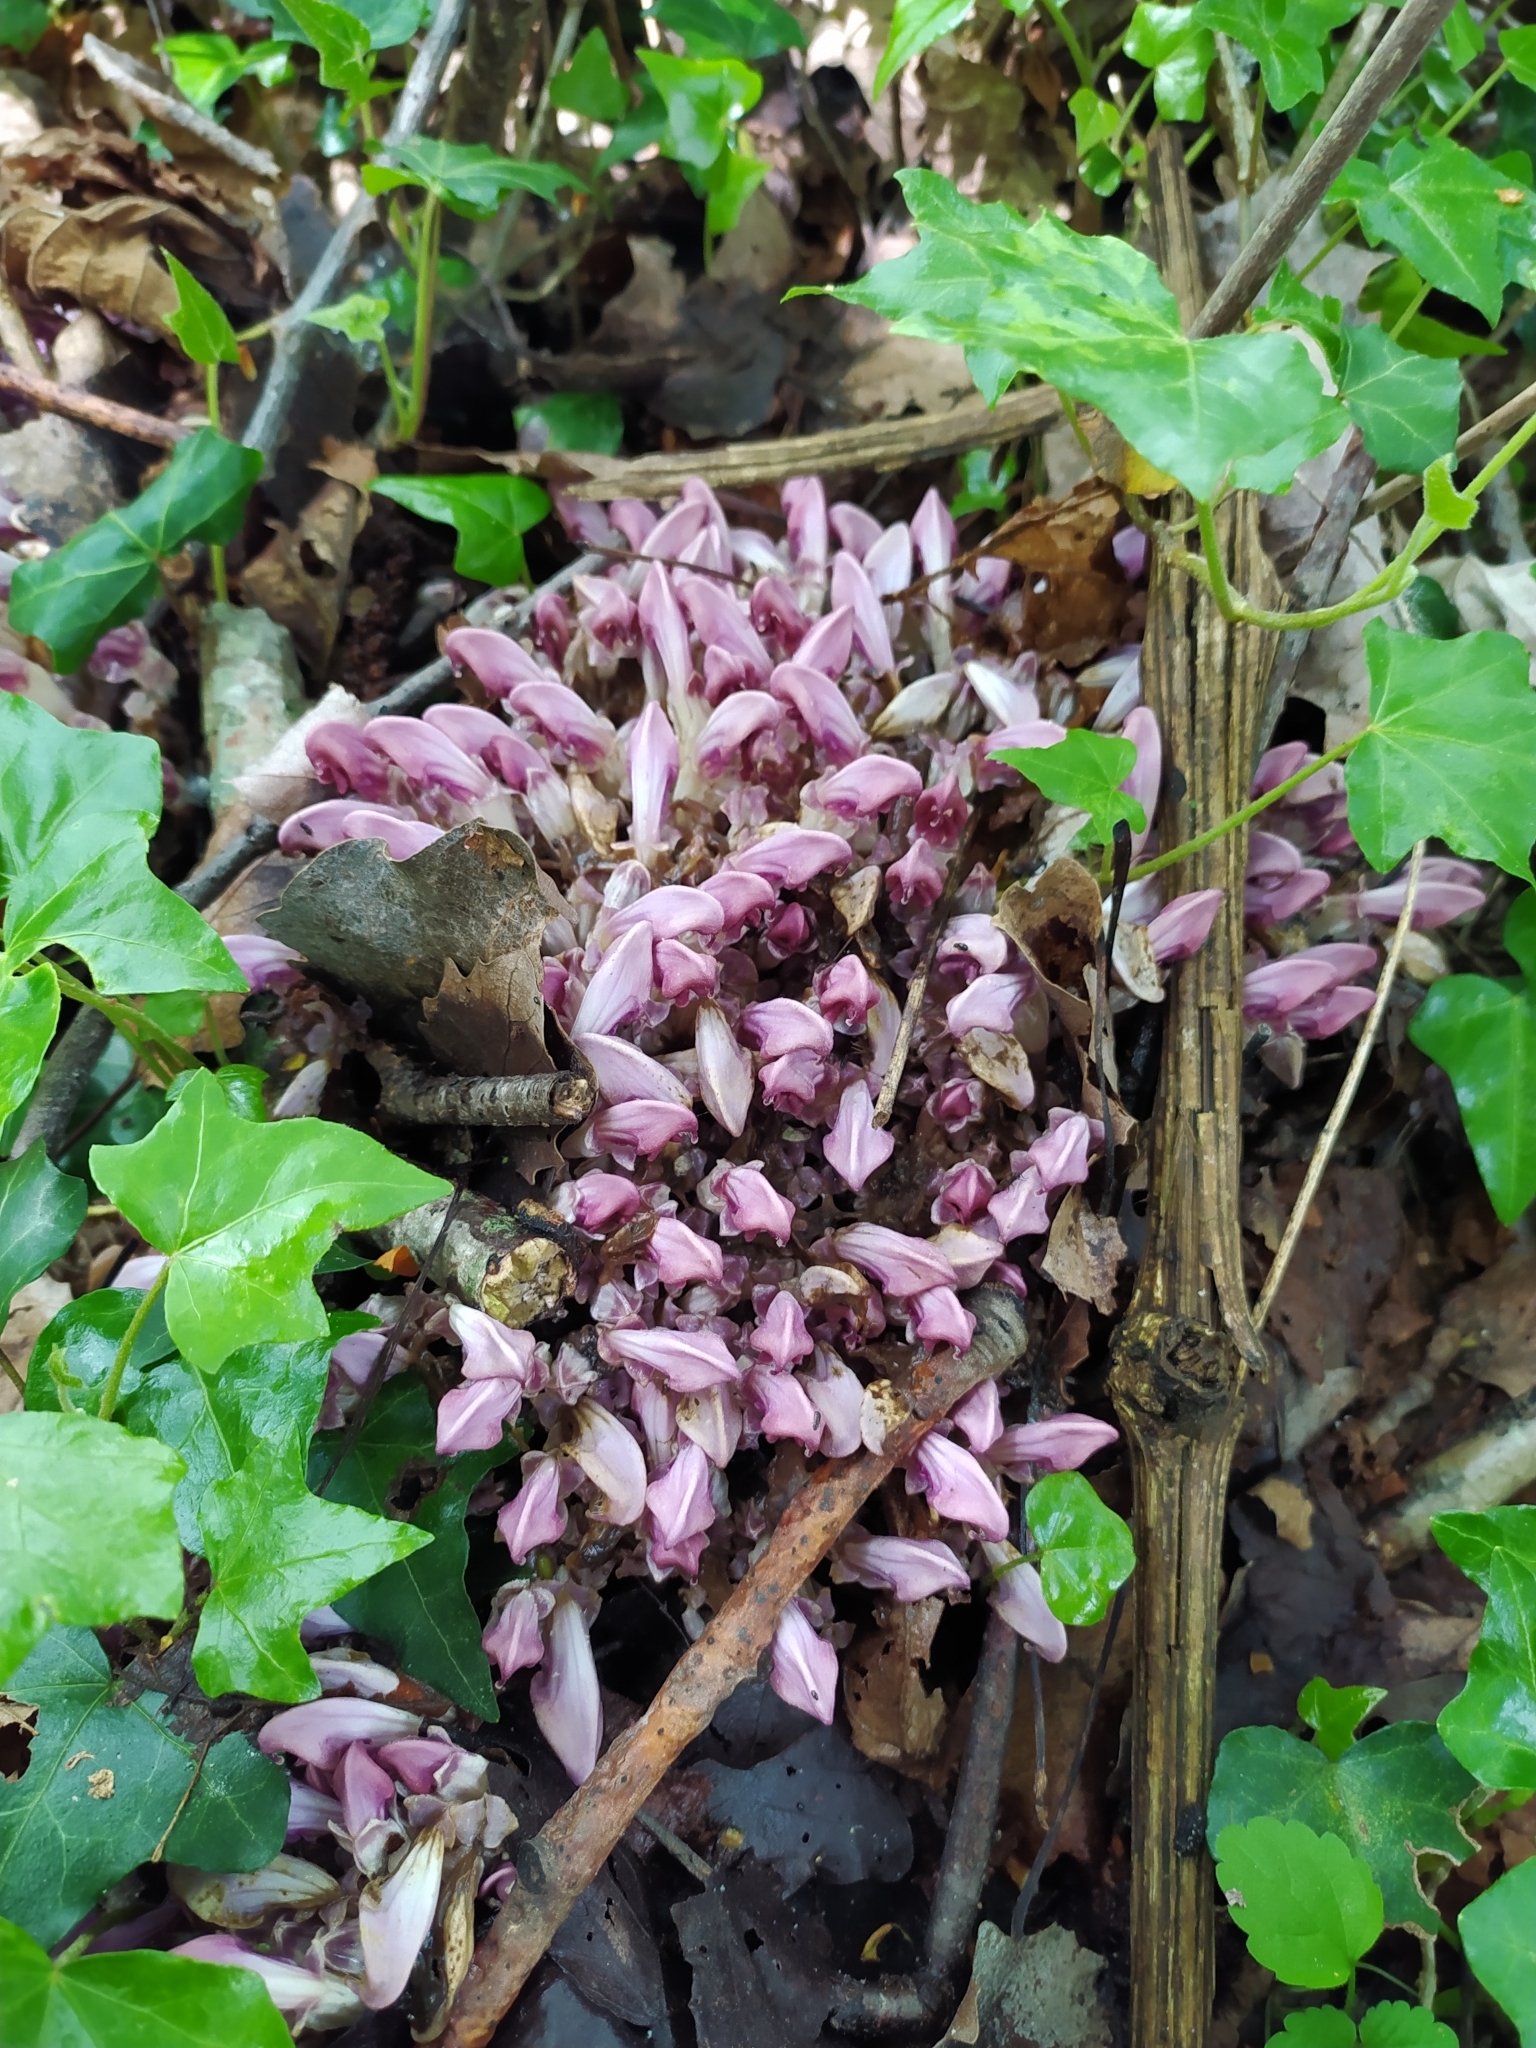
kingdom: Plantae
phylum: Tracheophyta
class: Magnoliopsida
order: Lamiales
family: Orobanchaceae
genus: Lathraea
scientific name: Lathraea clandestina
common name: Purple toothwort
